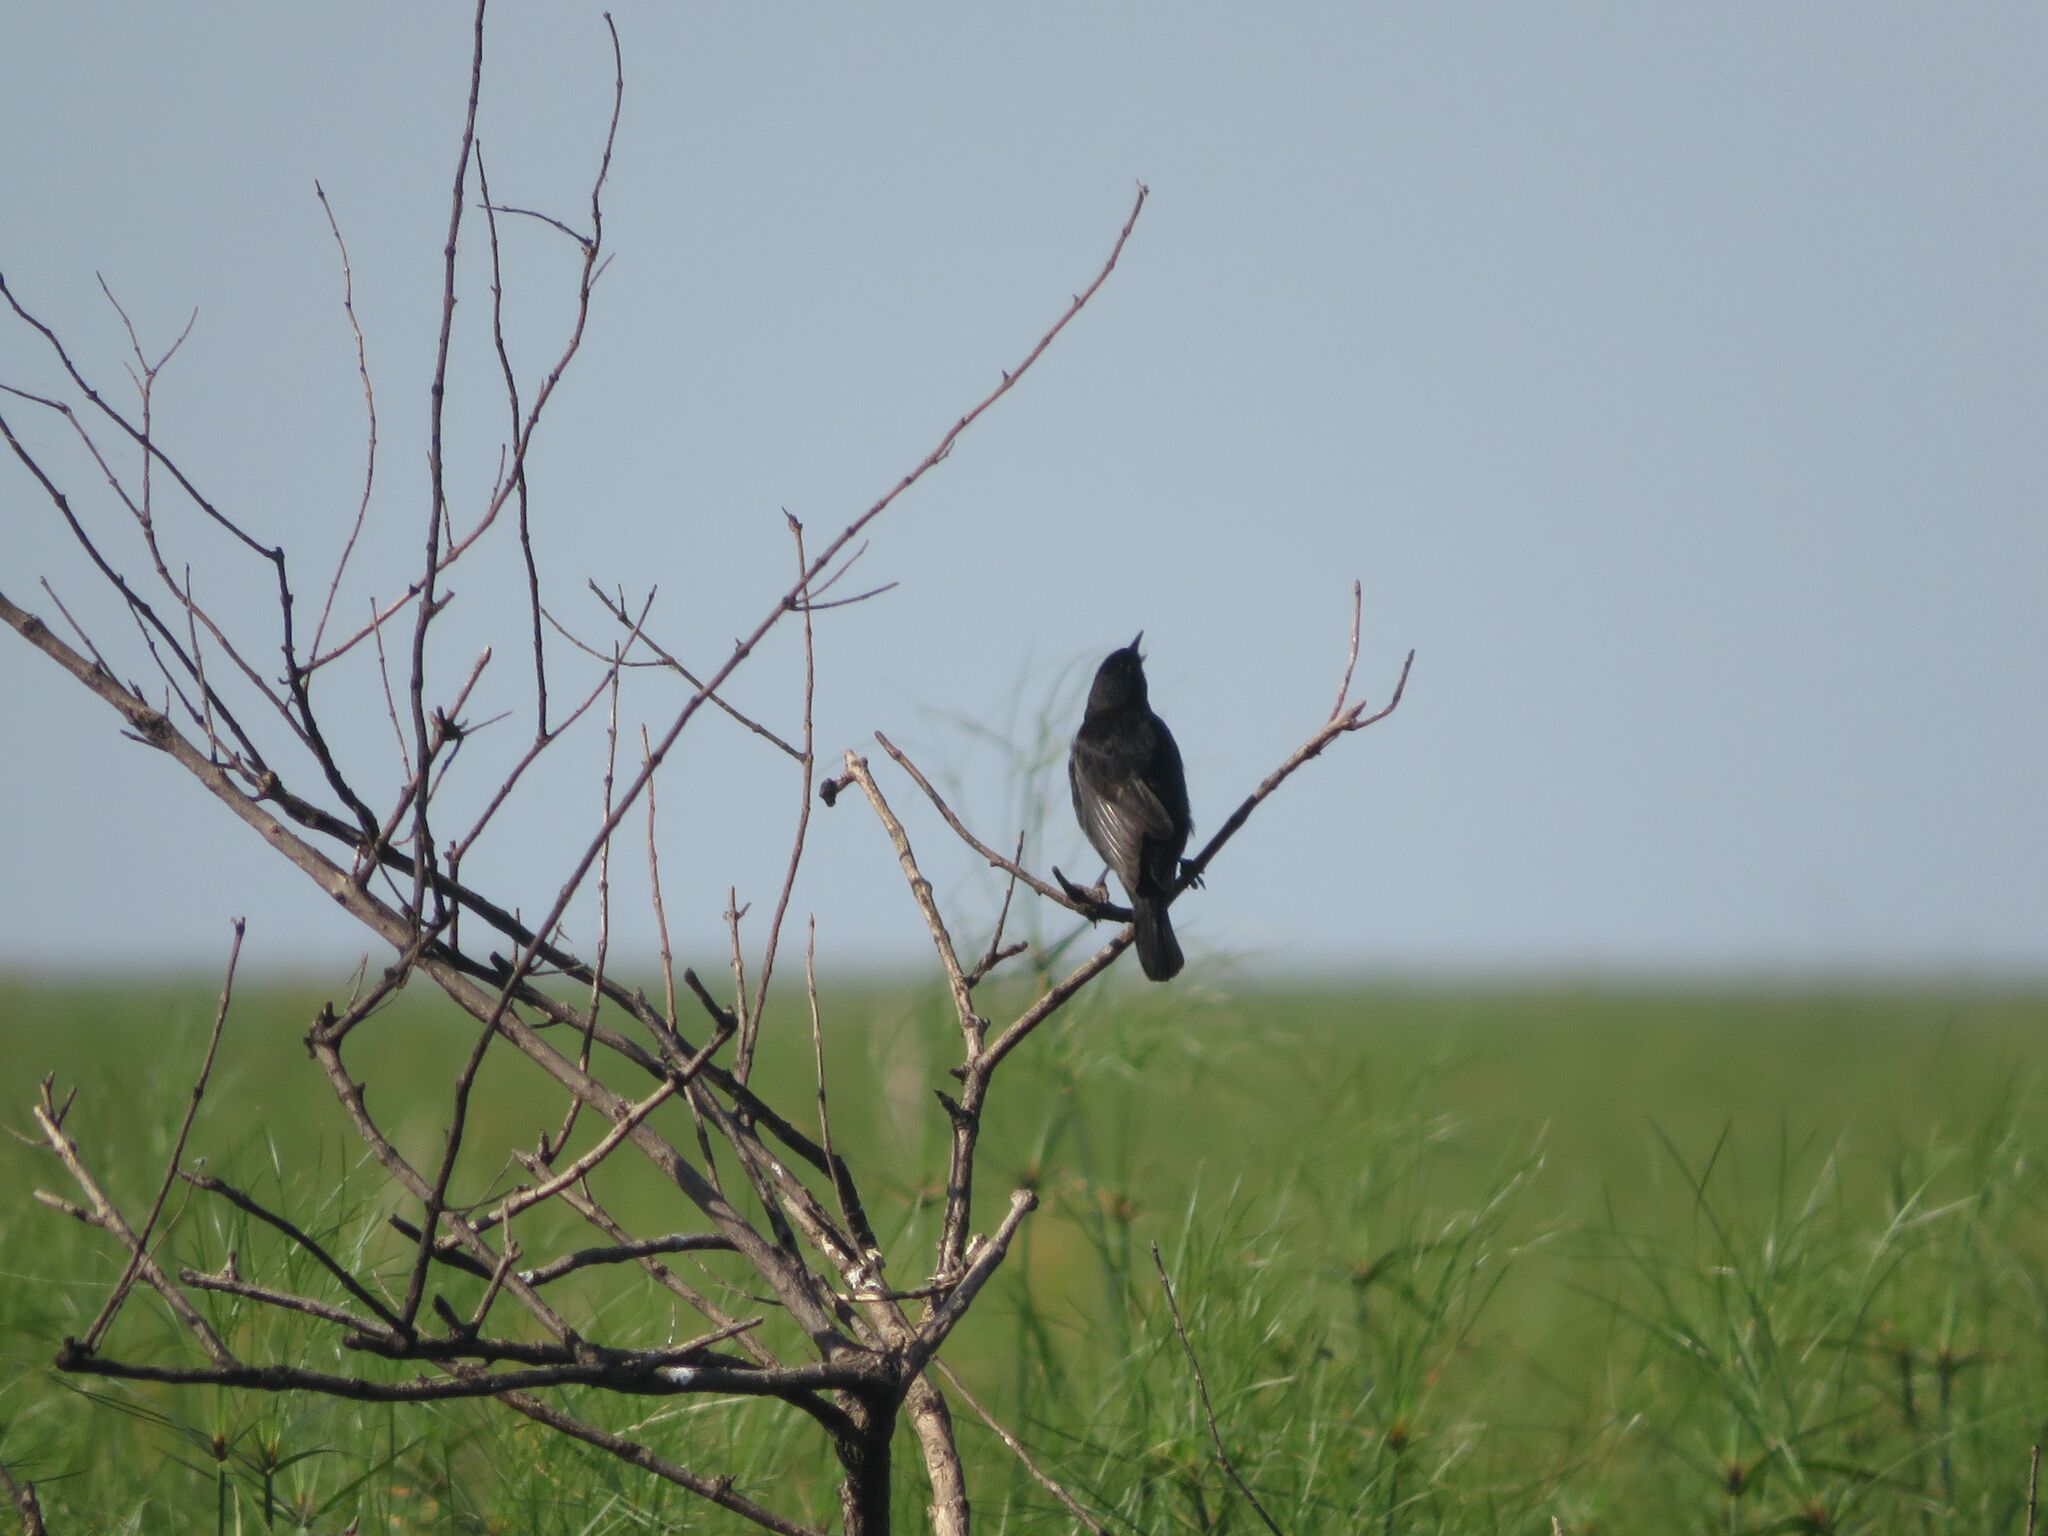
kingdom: Animalia
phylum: Chordata
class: Aves
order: Passeriformes
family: Icteridae
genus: Agelasticus
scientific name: Agelasticus thilius
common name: Yellow-winged blackbird
